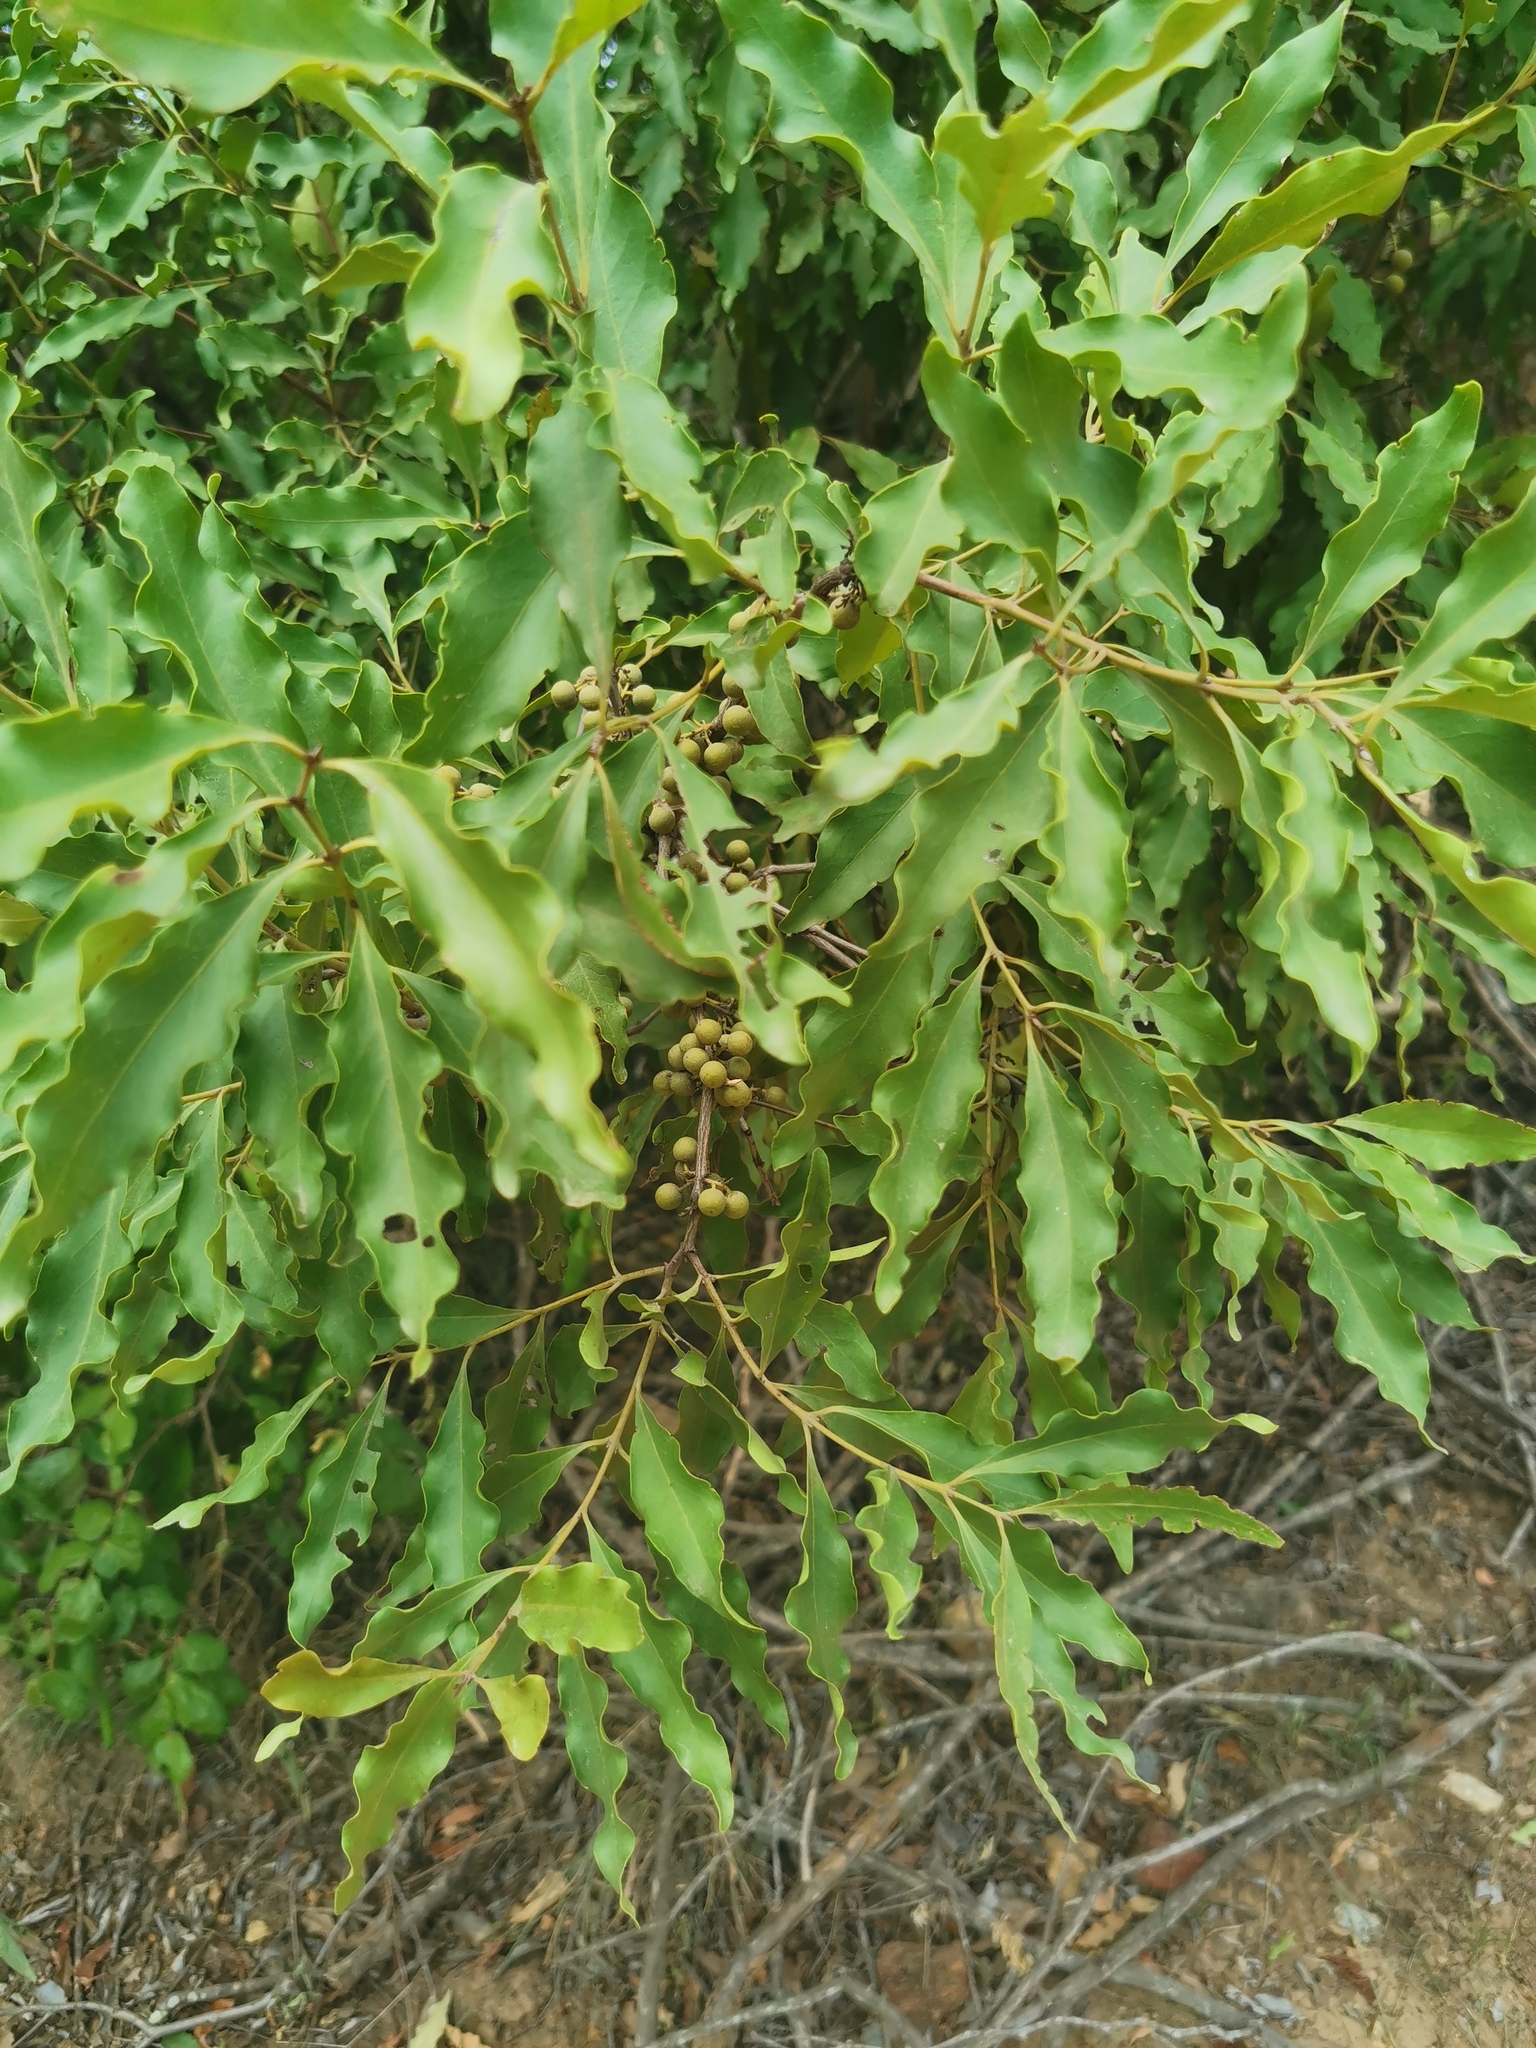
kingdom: Plantae
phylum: Tracheophyta
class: Magnoliopsida
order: Ericales
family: Ebenaceae
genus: Euclea
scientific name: Euclea divinorum
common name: Diamond-leaved euclea
